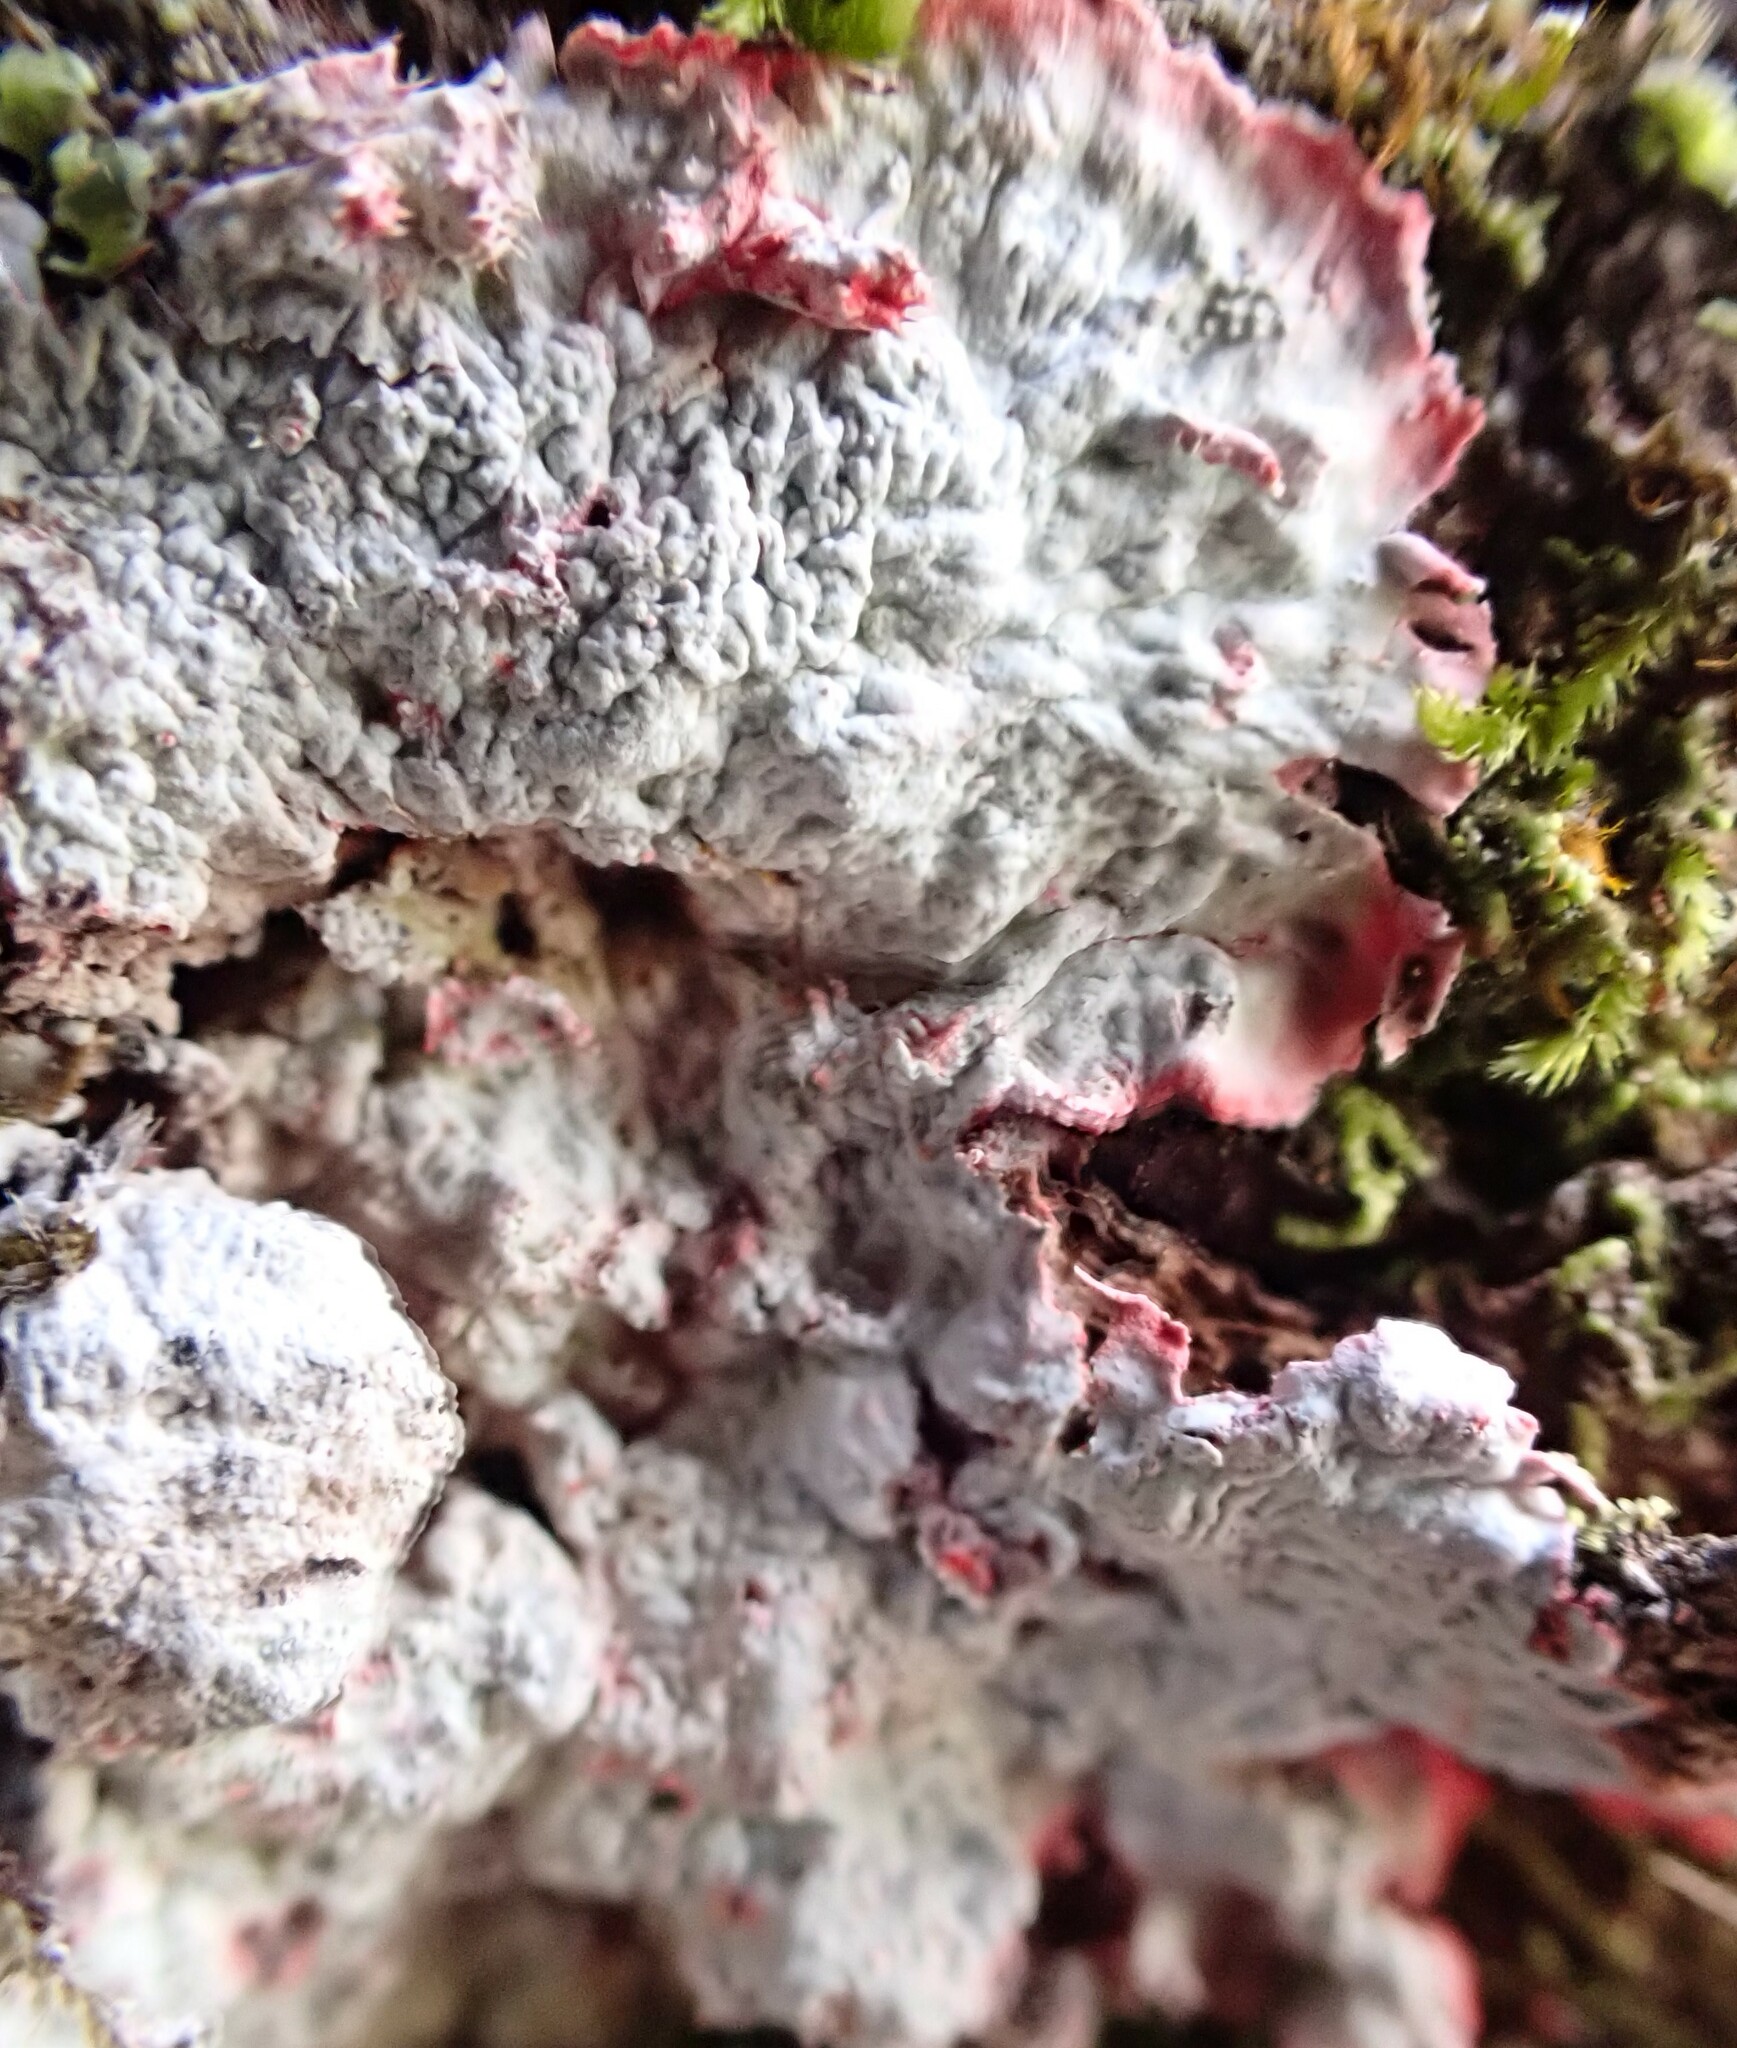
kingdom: Fungi
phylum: Ascomycota
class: Arthoniomycetes
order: Arthoniales
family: Arthoniaceae
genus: Herpothallon
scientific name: Herpothallon rubrocinctum
